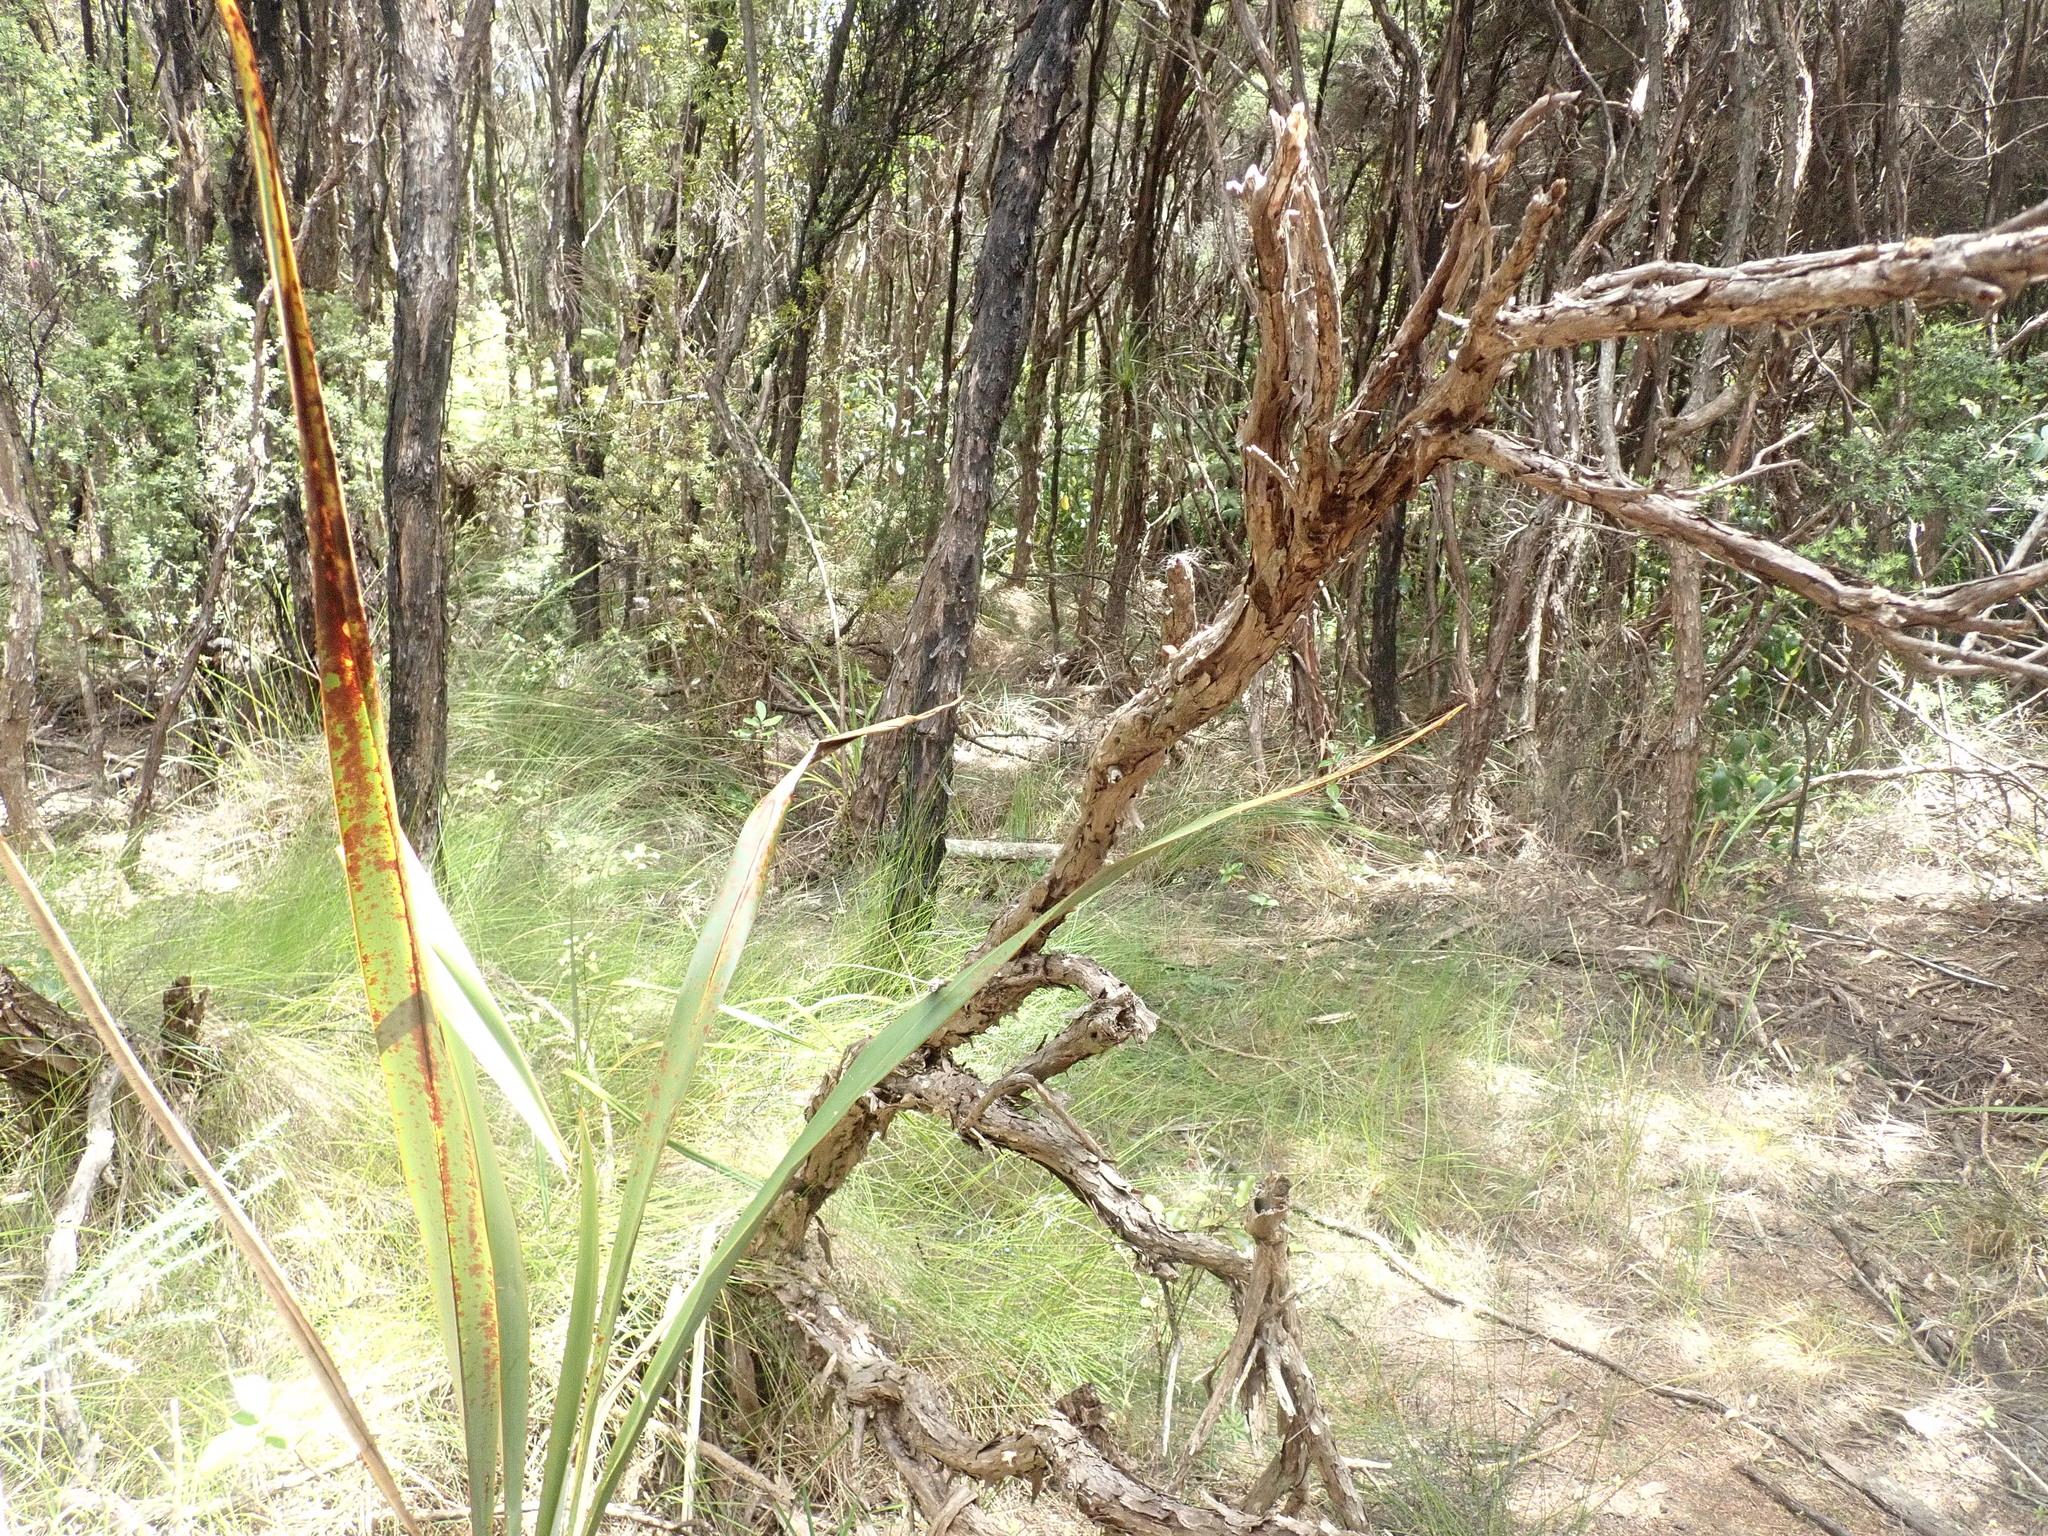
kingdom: Plantae
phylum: Tracheophyta
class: Magnoliopsida
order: Myrtales
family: Myrtaceae
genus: Leptospermum
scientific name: Leptospermum scoparium
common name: Broom tea-tree
